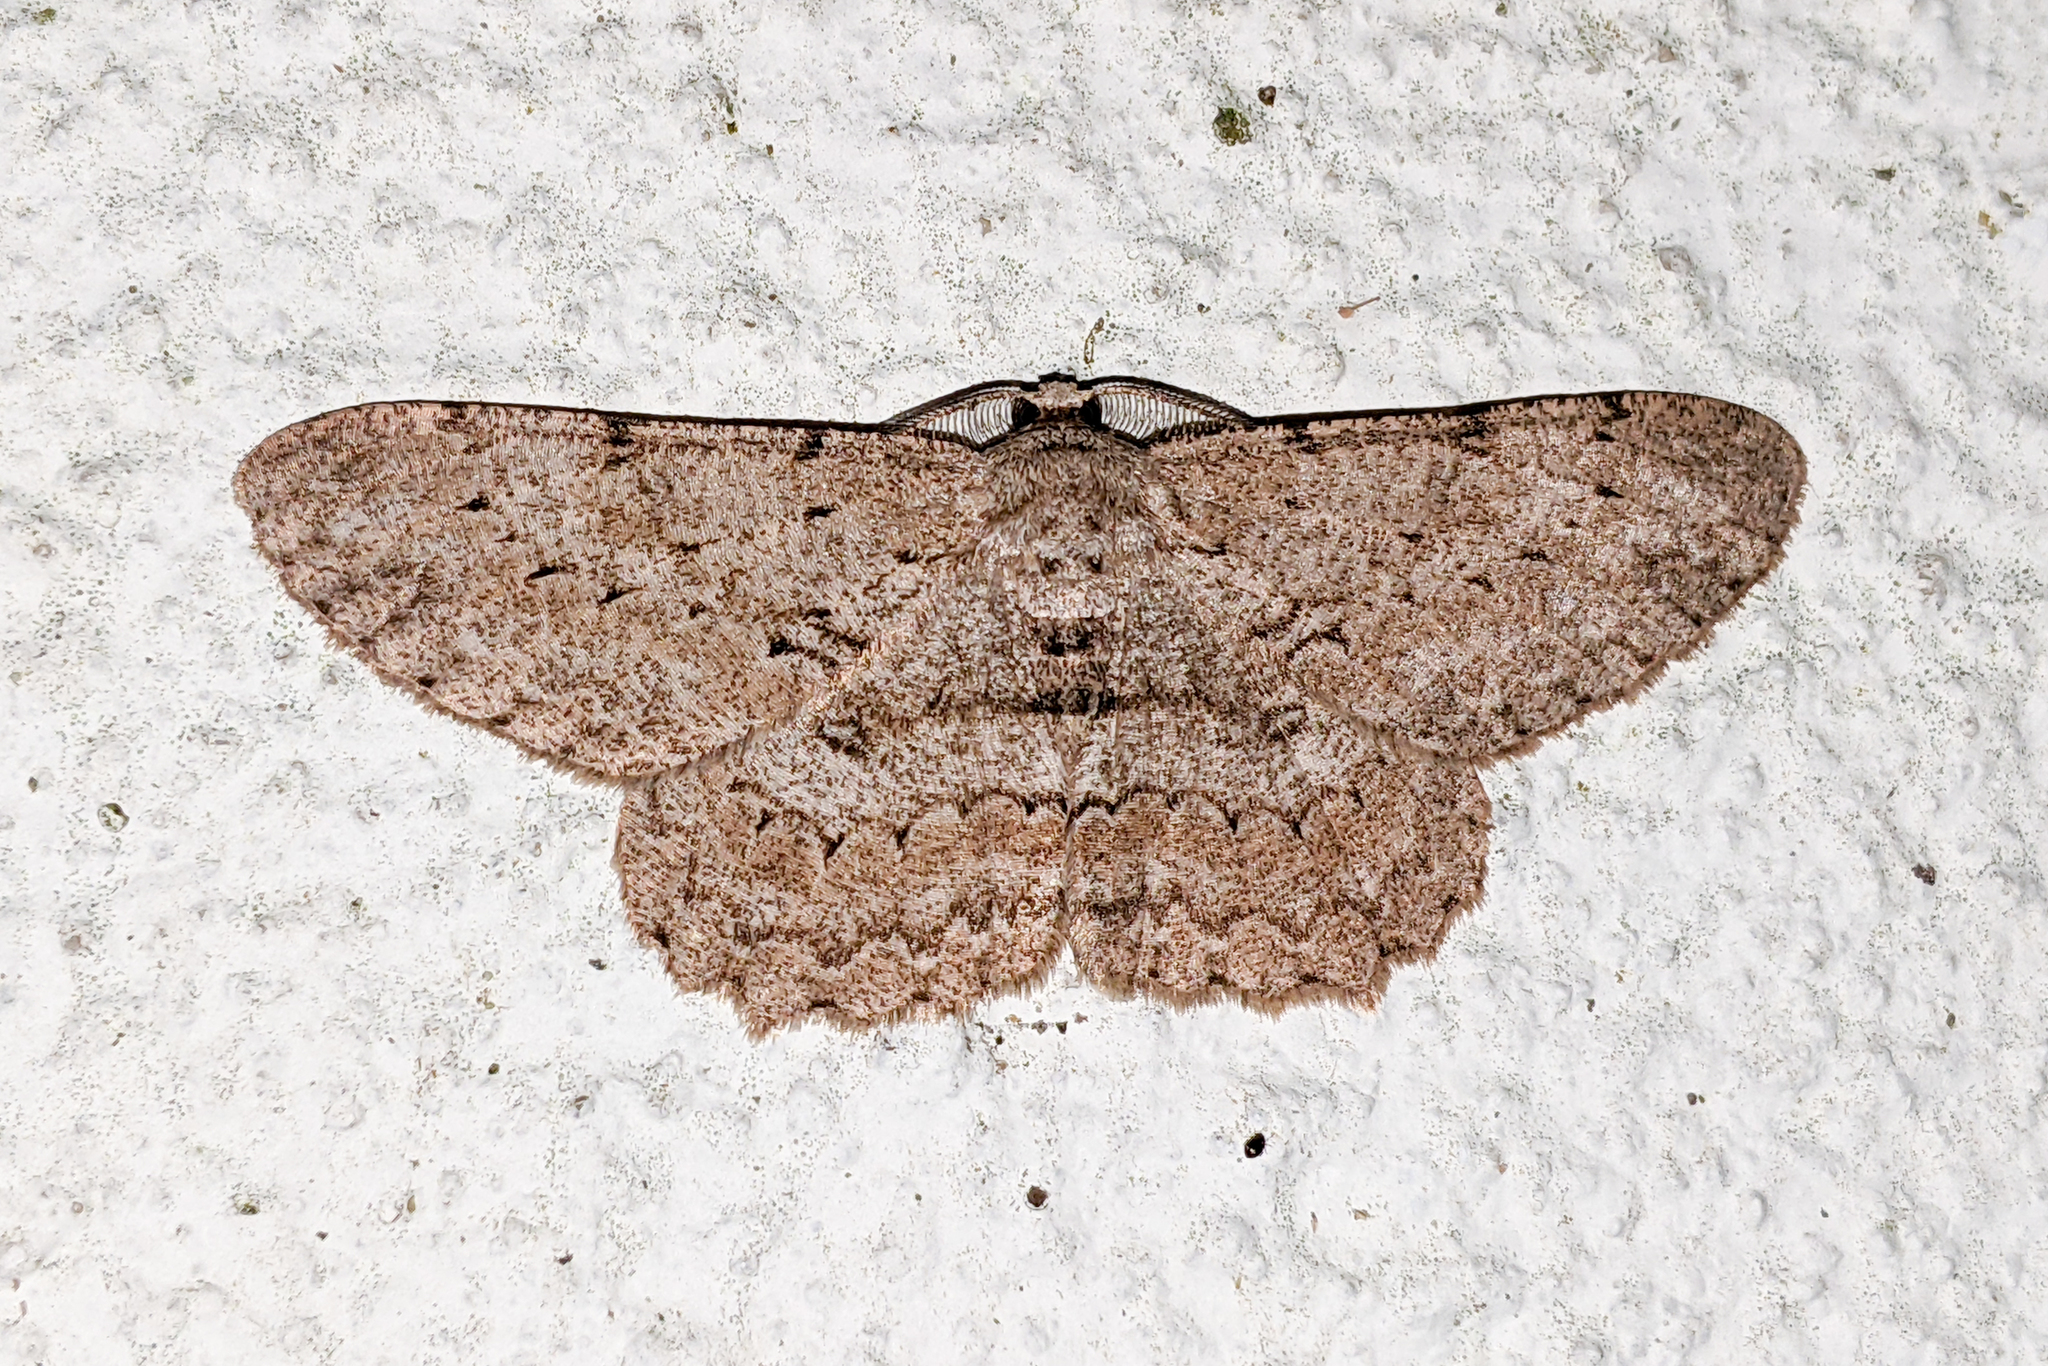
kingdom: Animalia
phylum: Arthropoda
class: Insecta
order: Lepidoptera
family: Geometridae
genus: Hypomecis
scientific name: Hypomecis punctinalis
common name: Pale oak beauty
